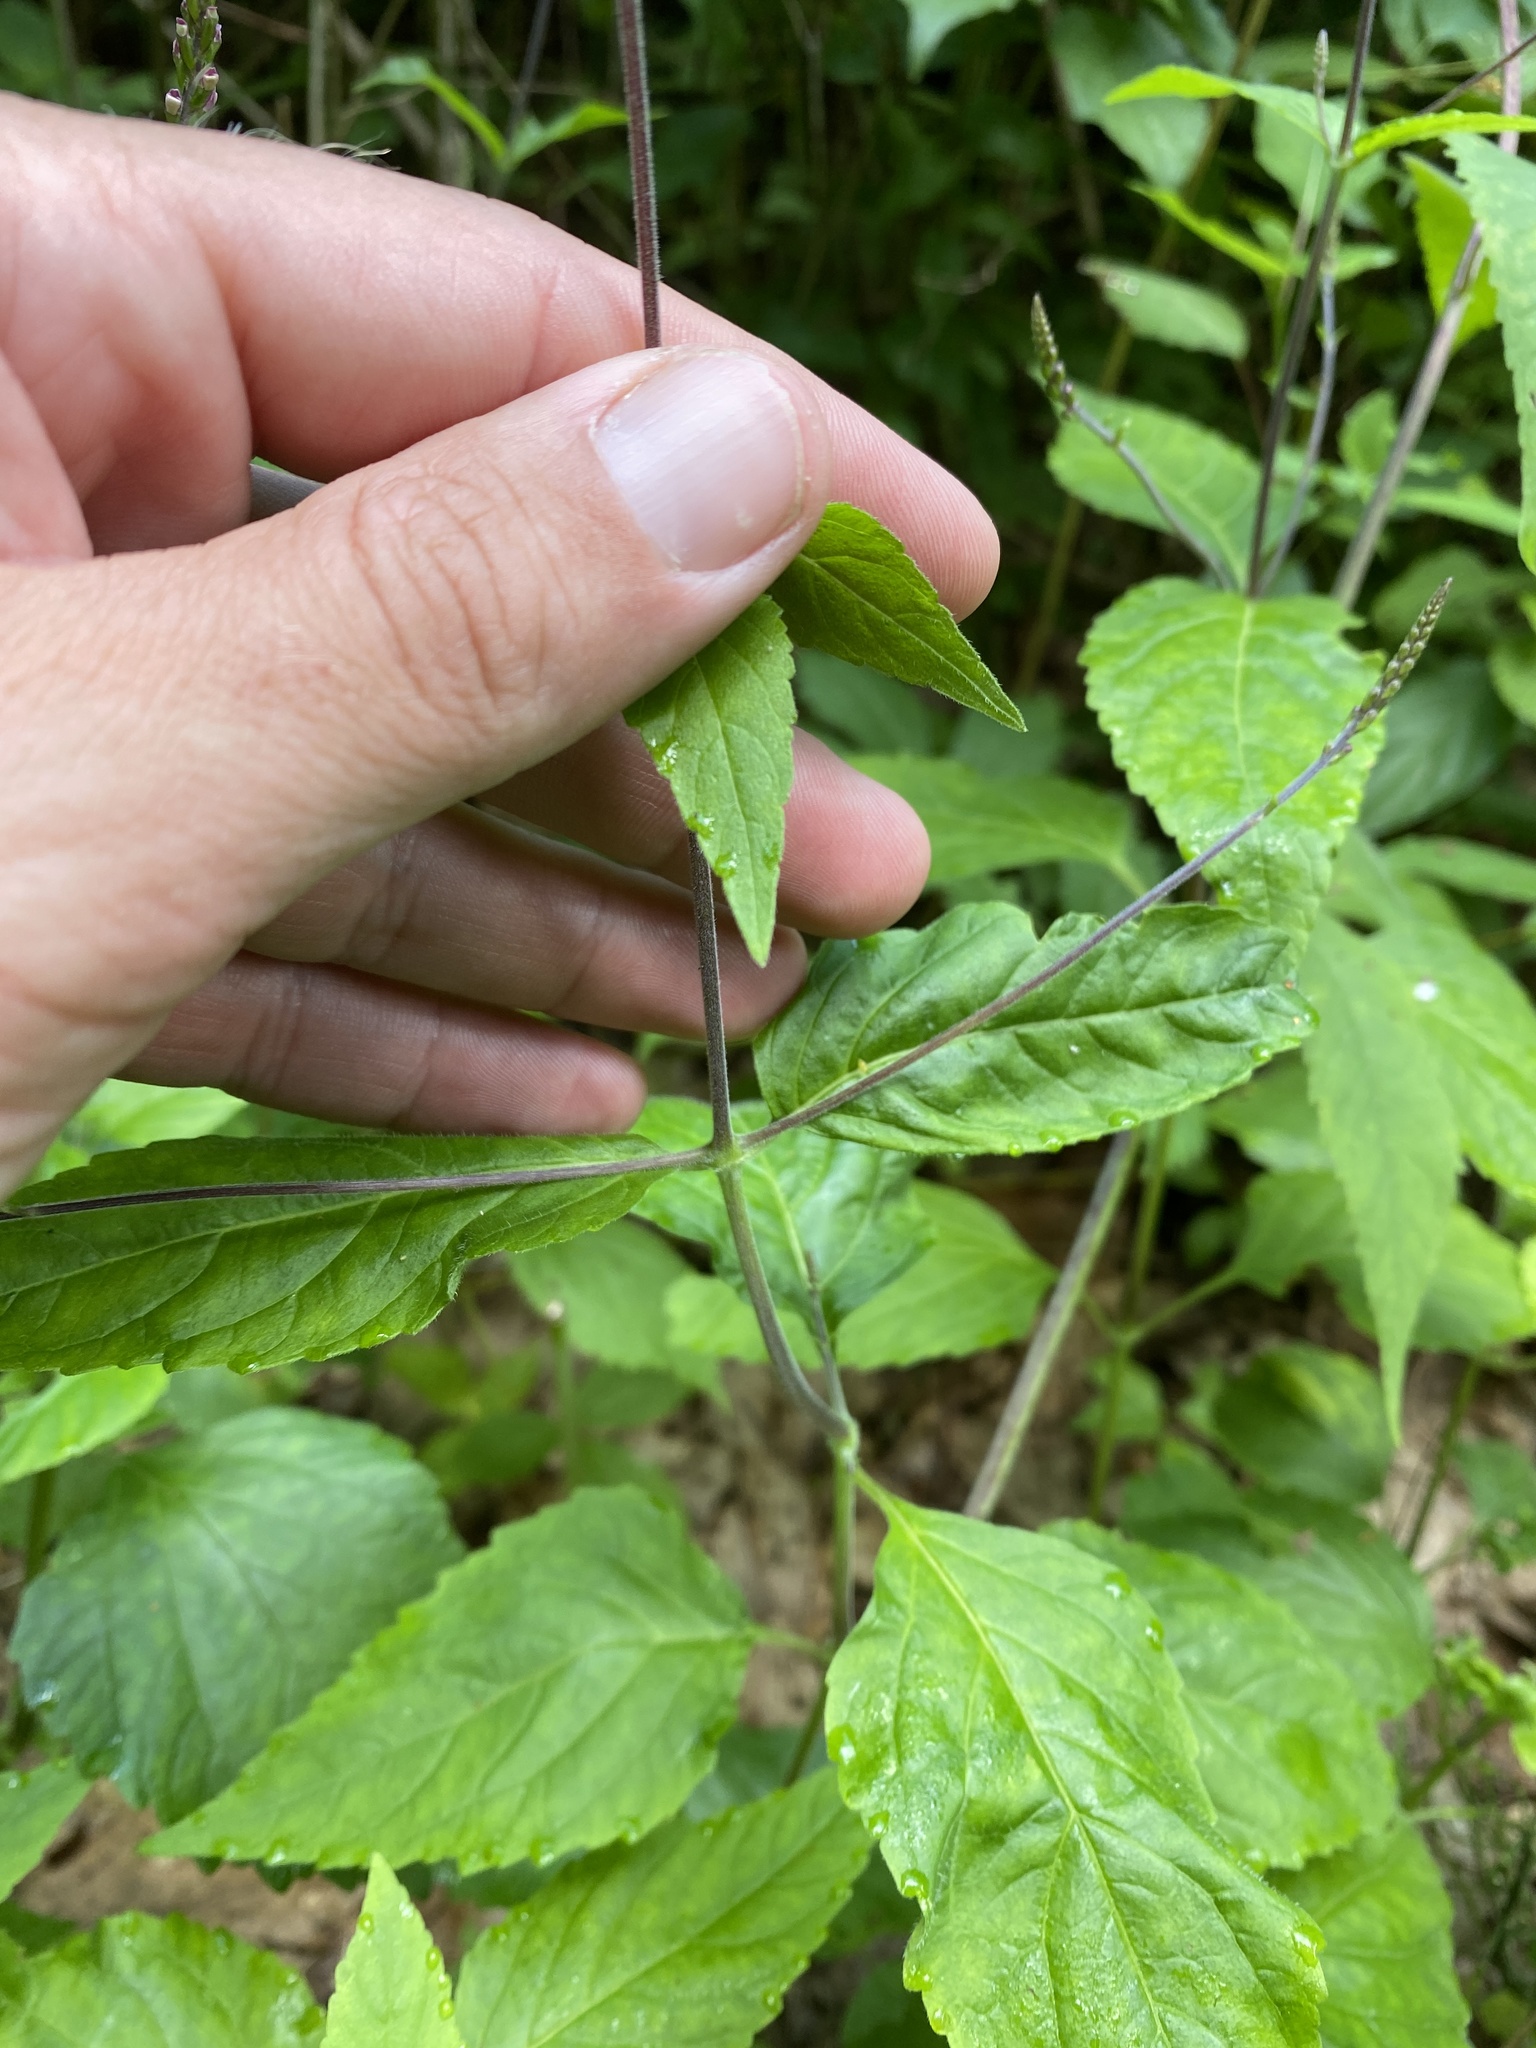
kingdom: Plantae
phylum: Tracheophyta
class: Magnoliopsida
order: Lamiales
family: Phrymaceae
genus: Phryma
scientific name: Phryma leptostachya
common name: American lopseed
